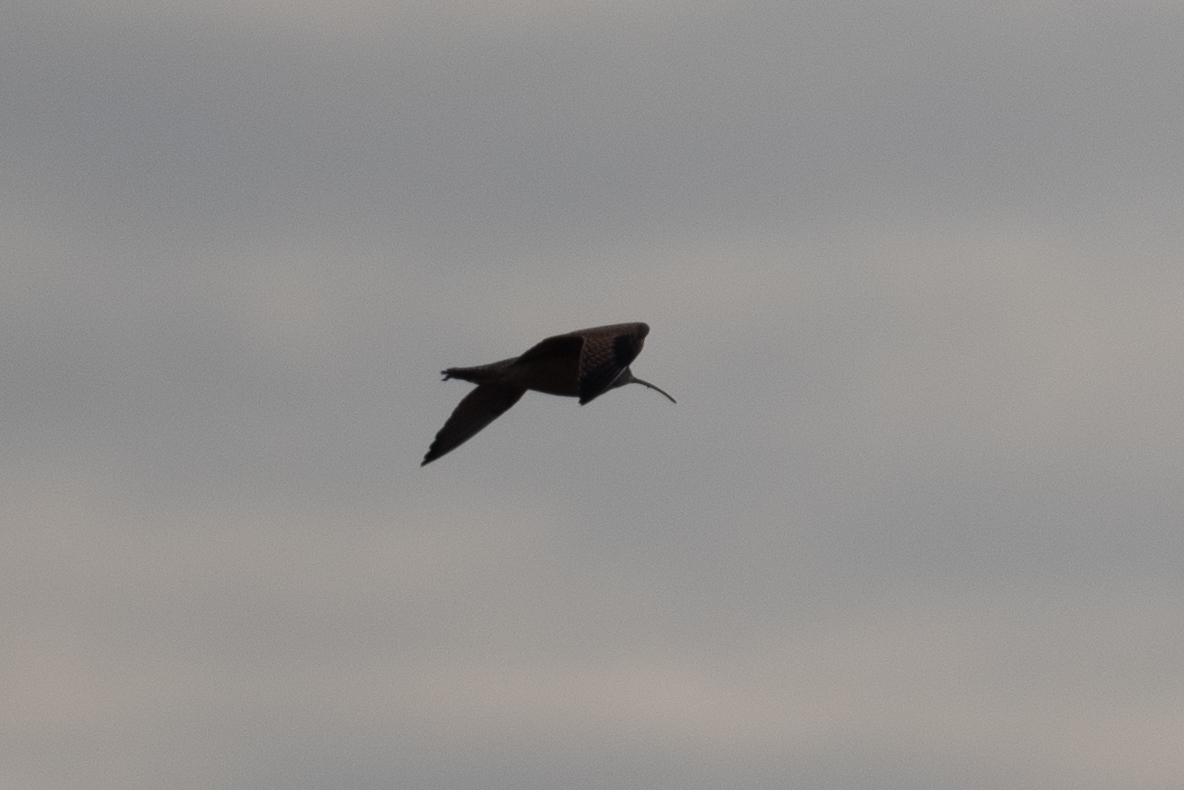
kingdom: Animalia
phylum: Chordata
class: Aves
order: Charadriiformes
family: Scolopacidae
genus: Numenius
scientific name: Numenius americanus
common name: Long-billed curlew
